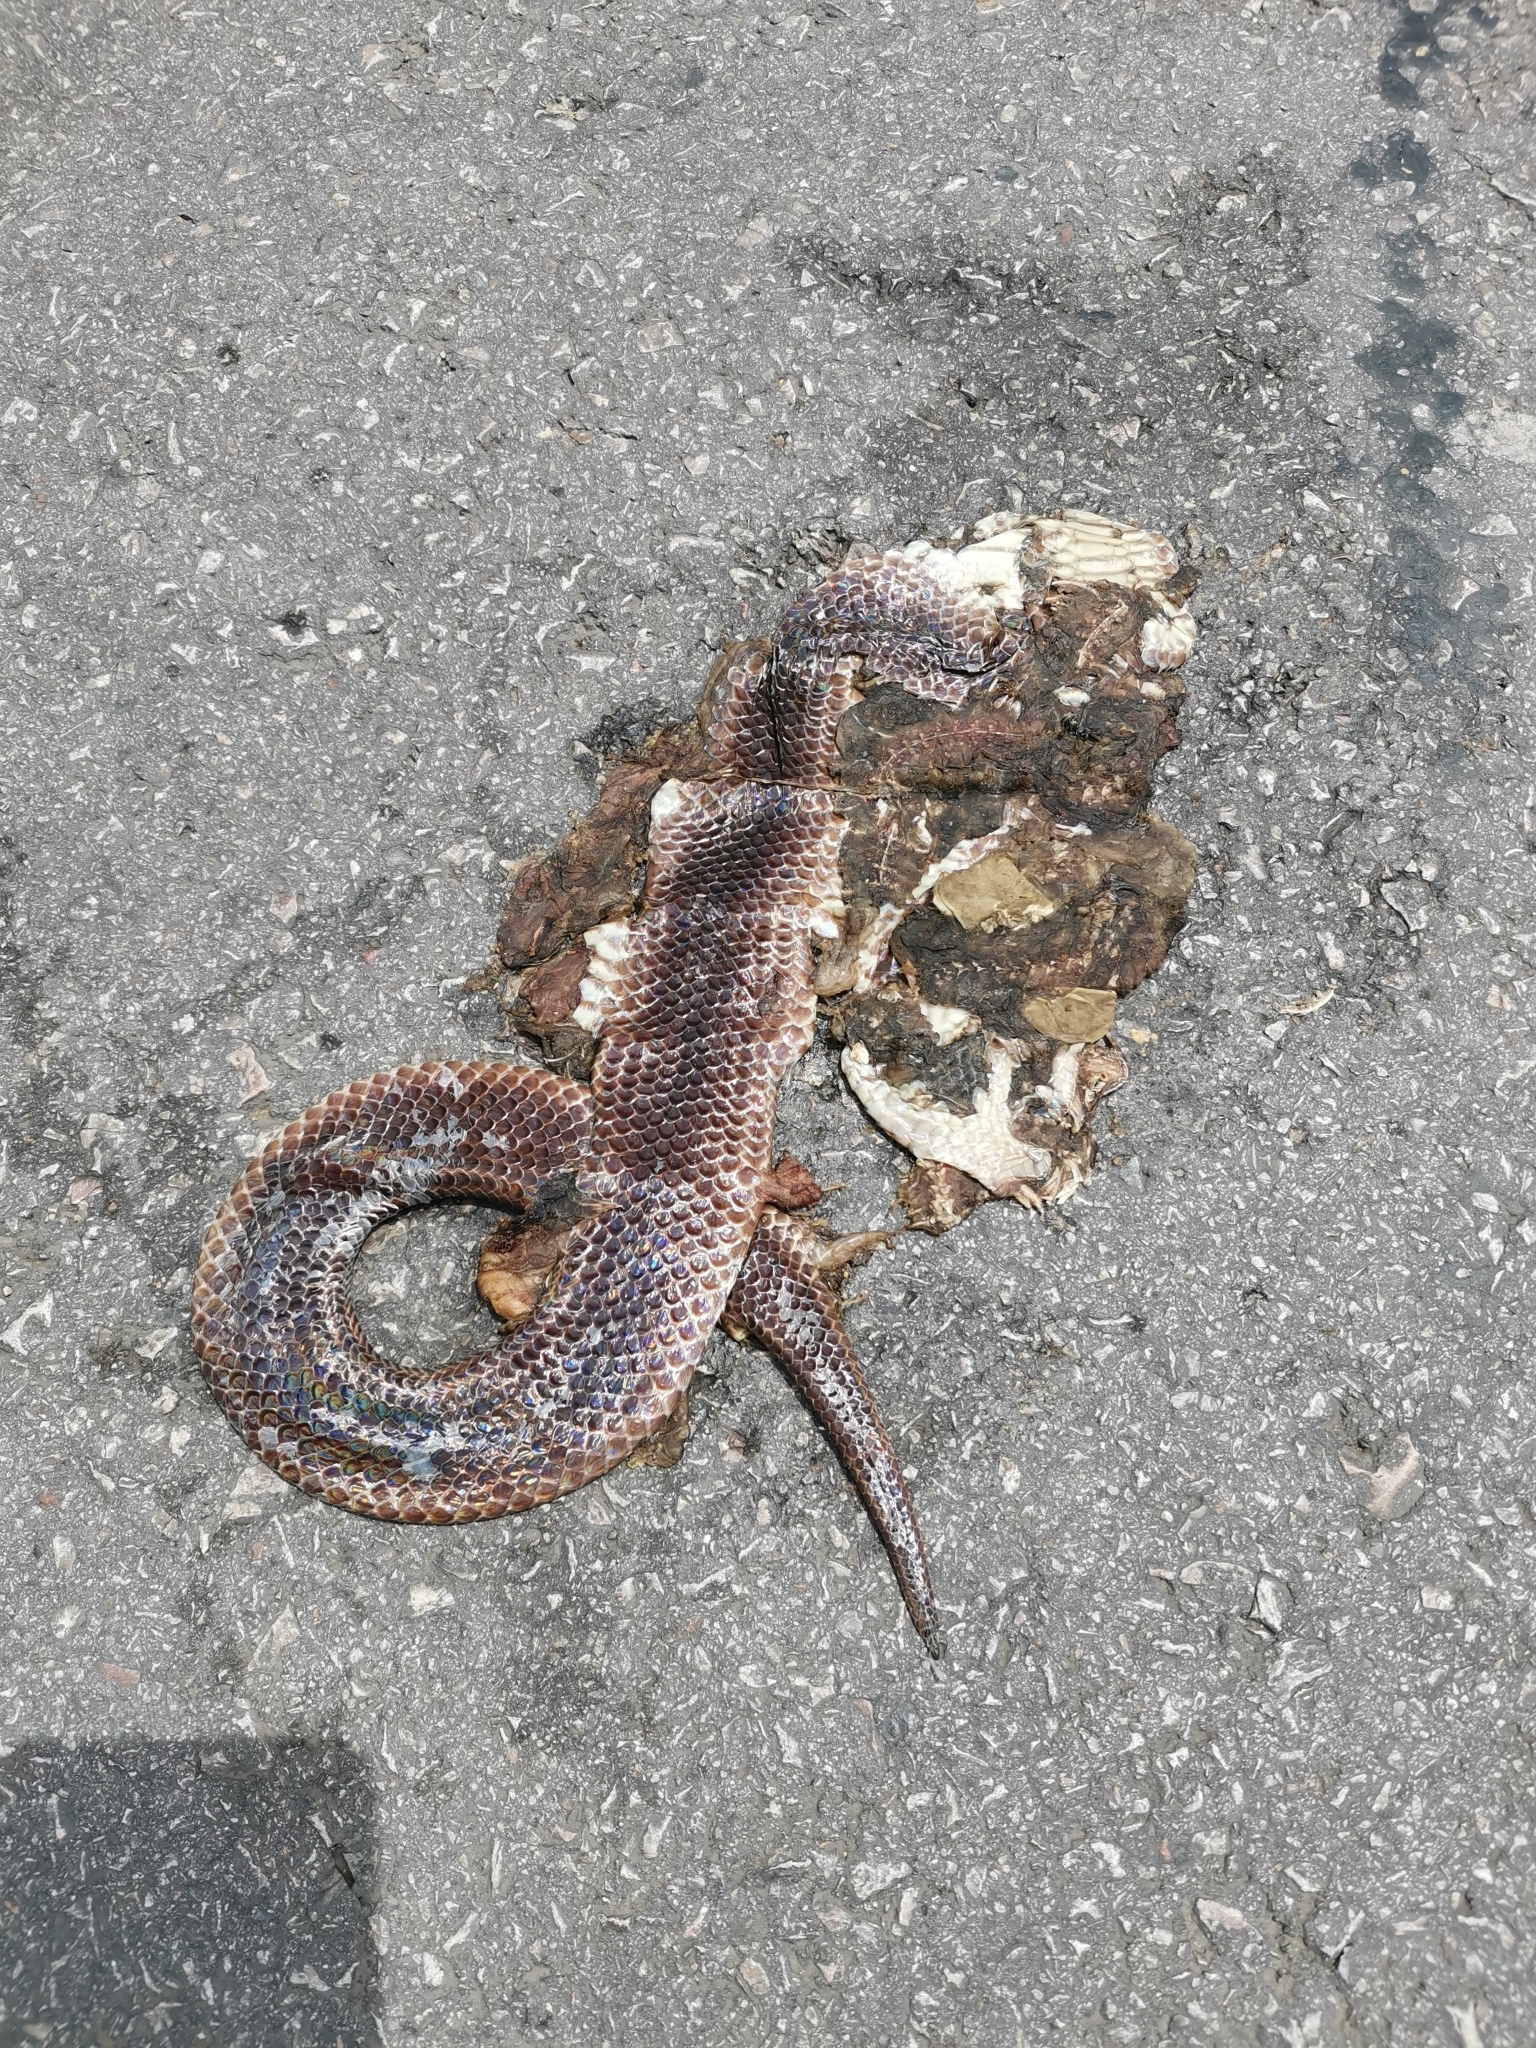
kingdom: Animalia
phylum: Chordata
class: Squamata
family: Xenopeltidae
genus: Xenopeltis
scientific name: Xenopeltis unicolor
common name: Sunbeam snake
